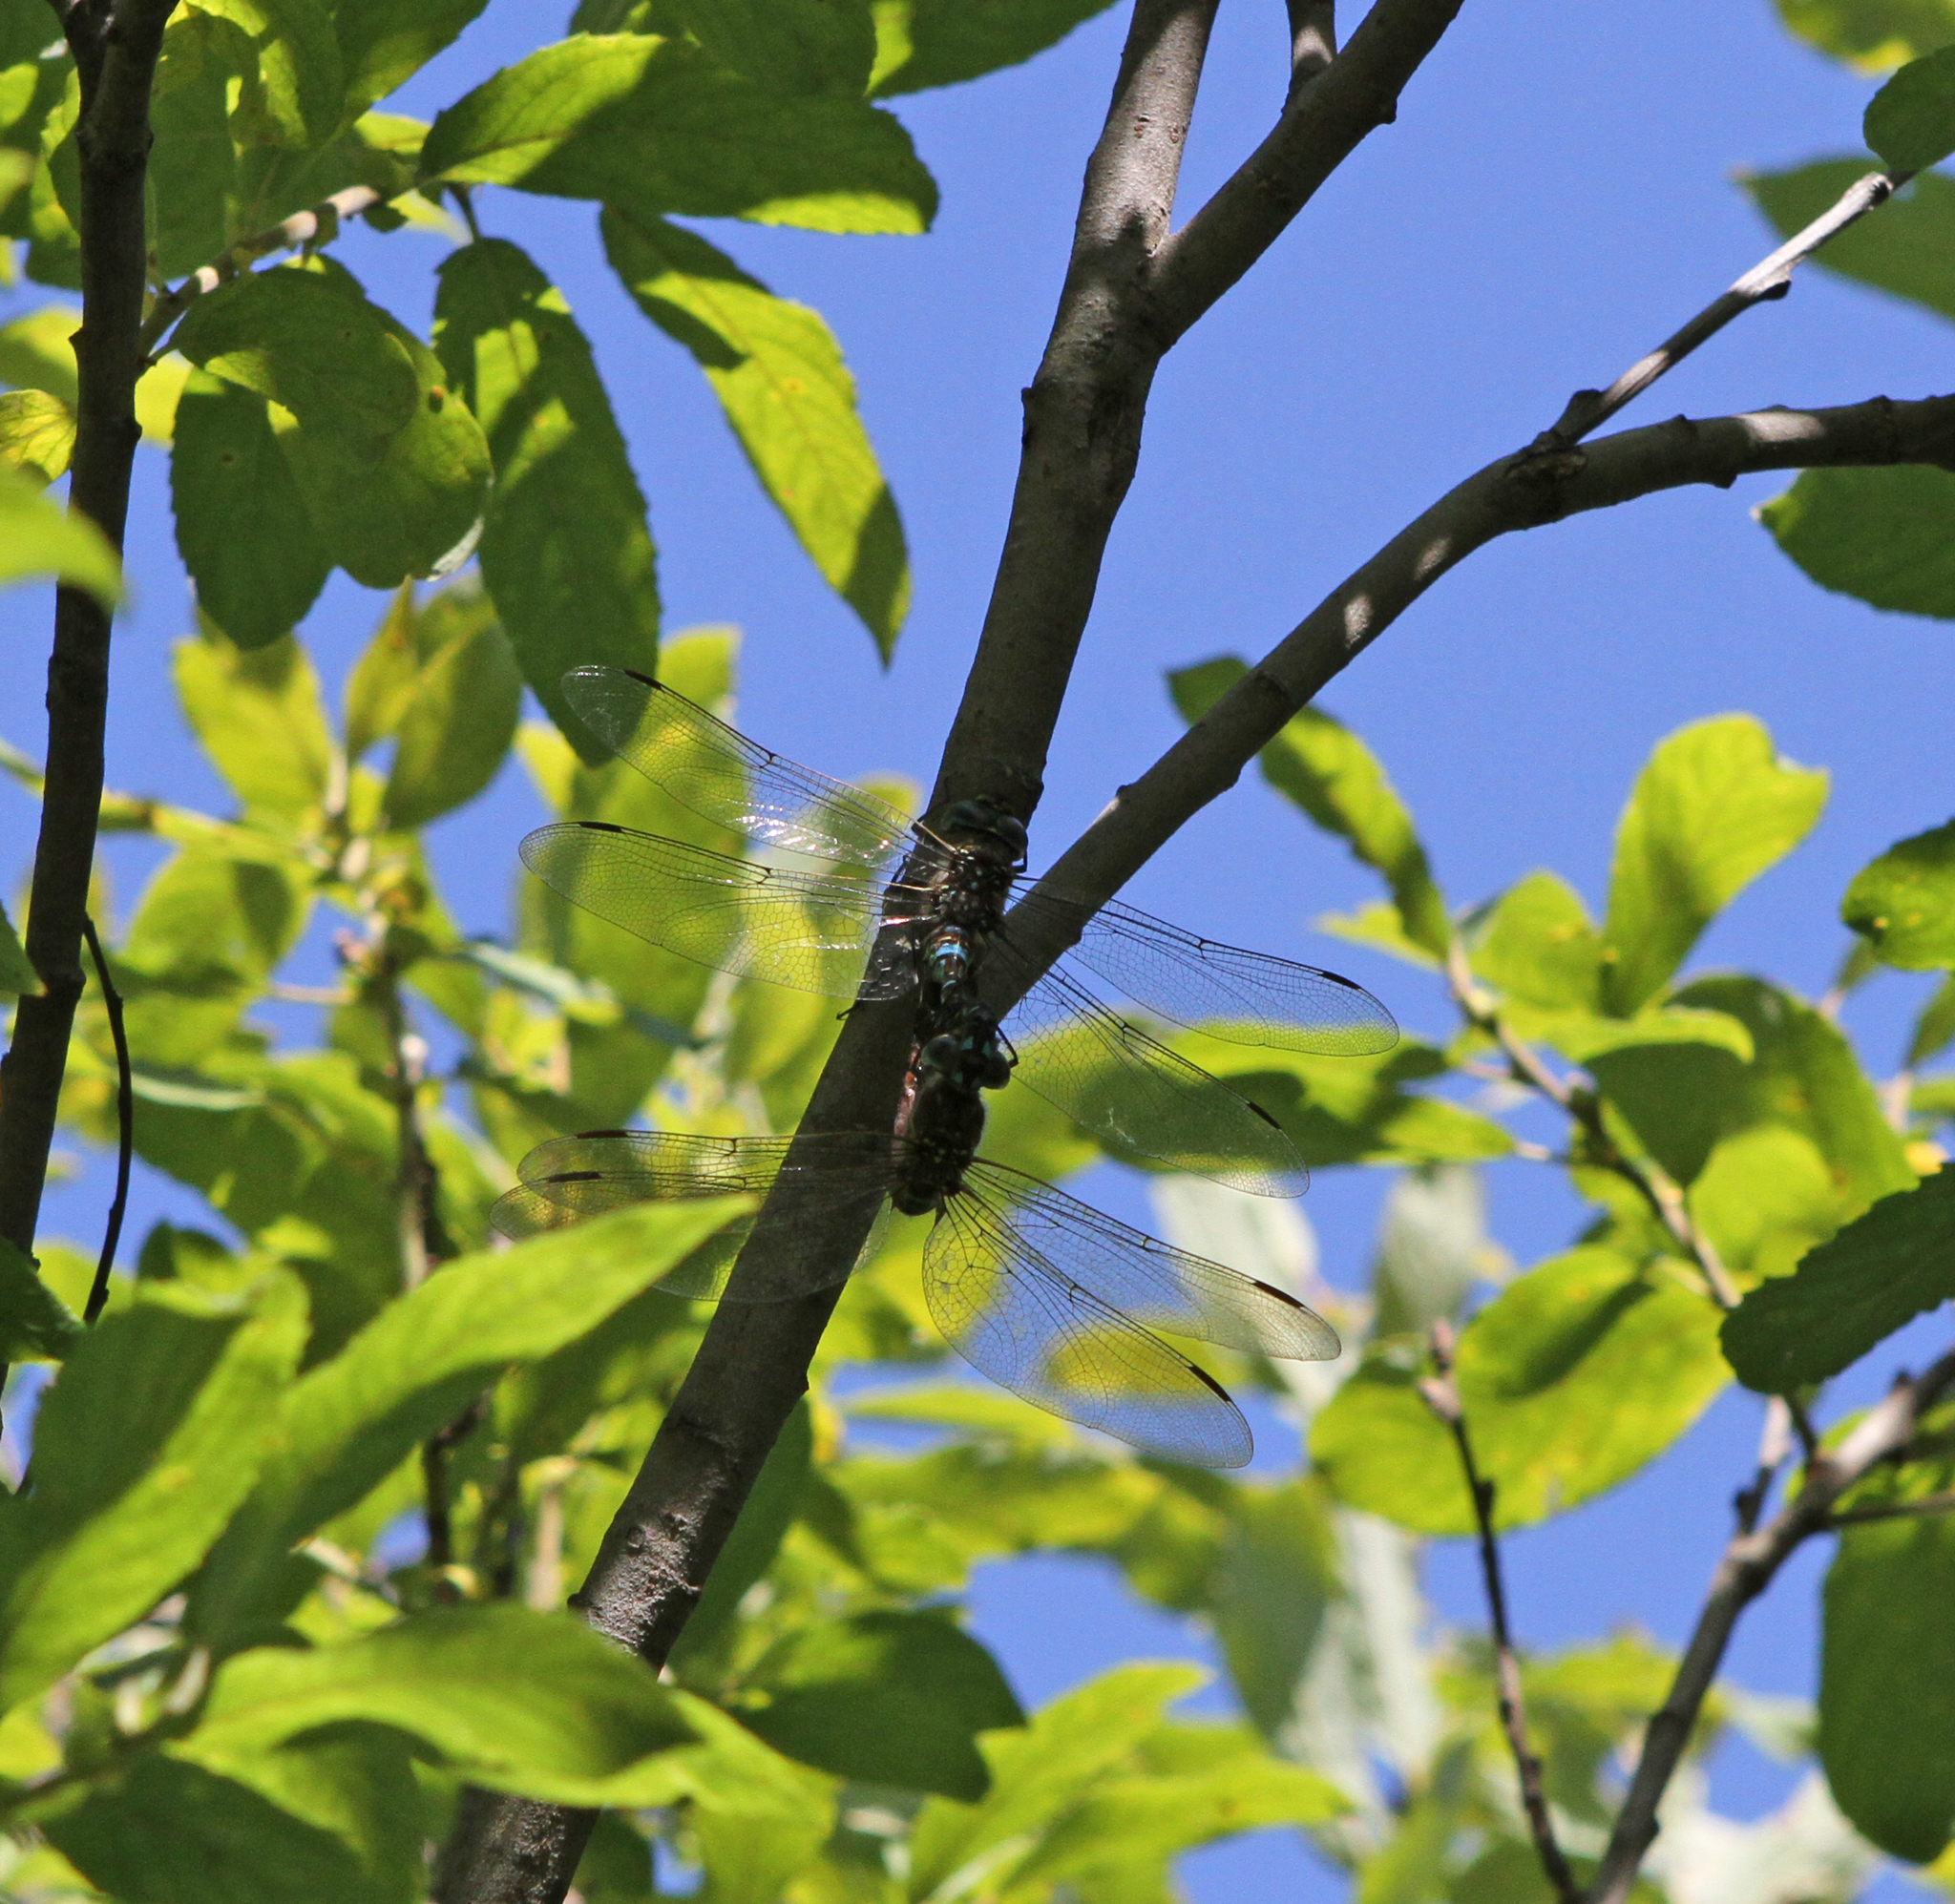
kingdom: Animalia
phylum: Arthropoda
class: Insecta
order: Odonata
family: Aeshnidae
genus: Aeshna
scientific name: Aeshna juncea
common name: Moorland hawker
